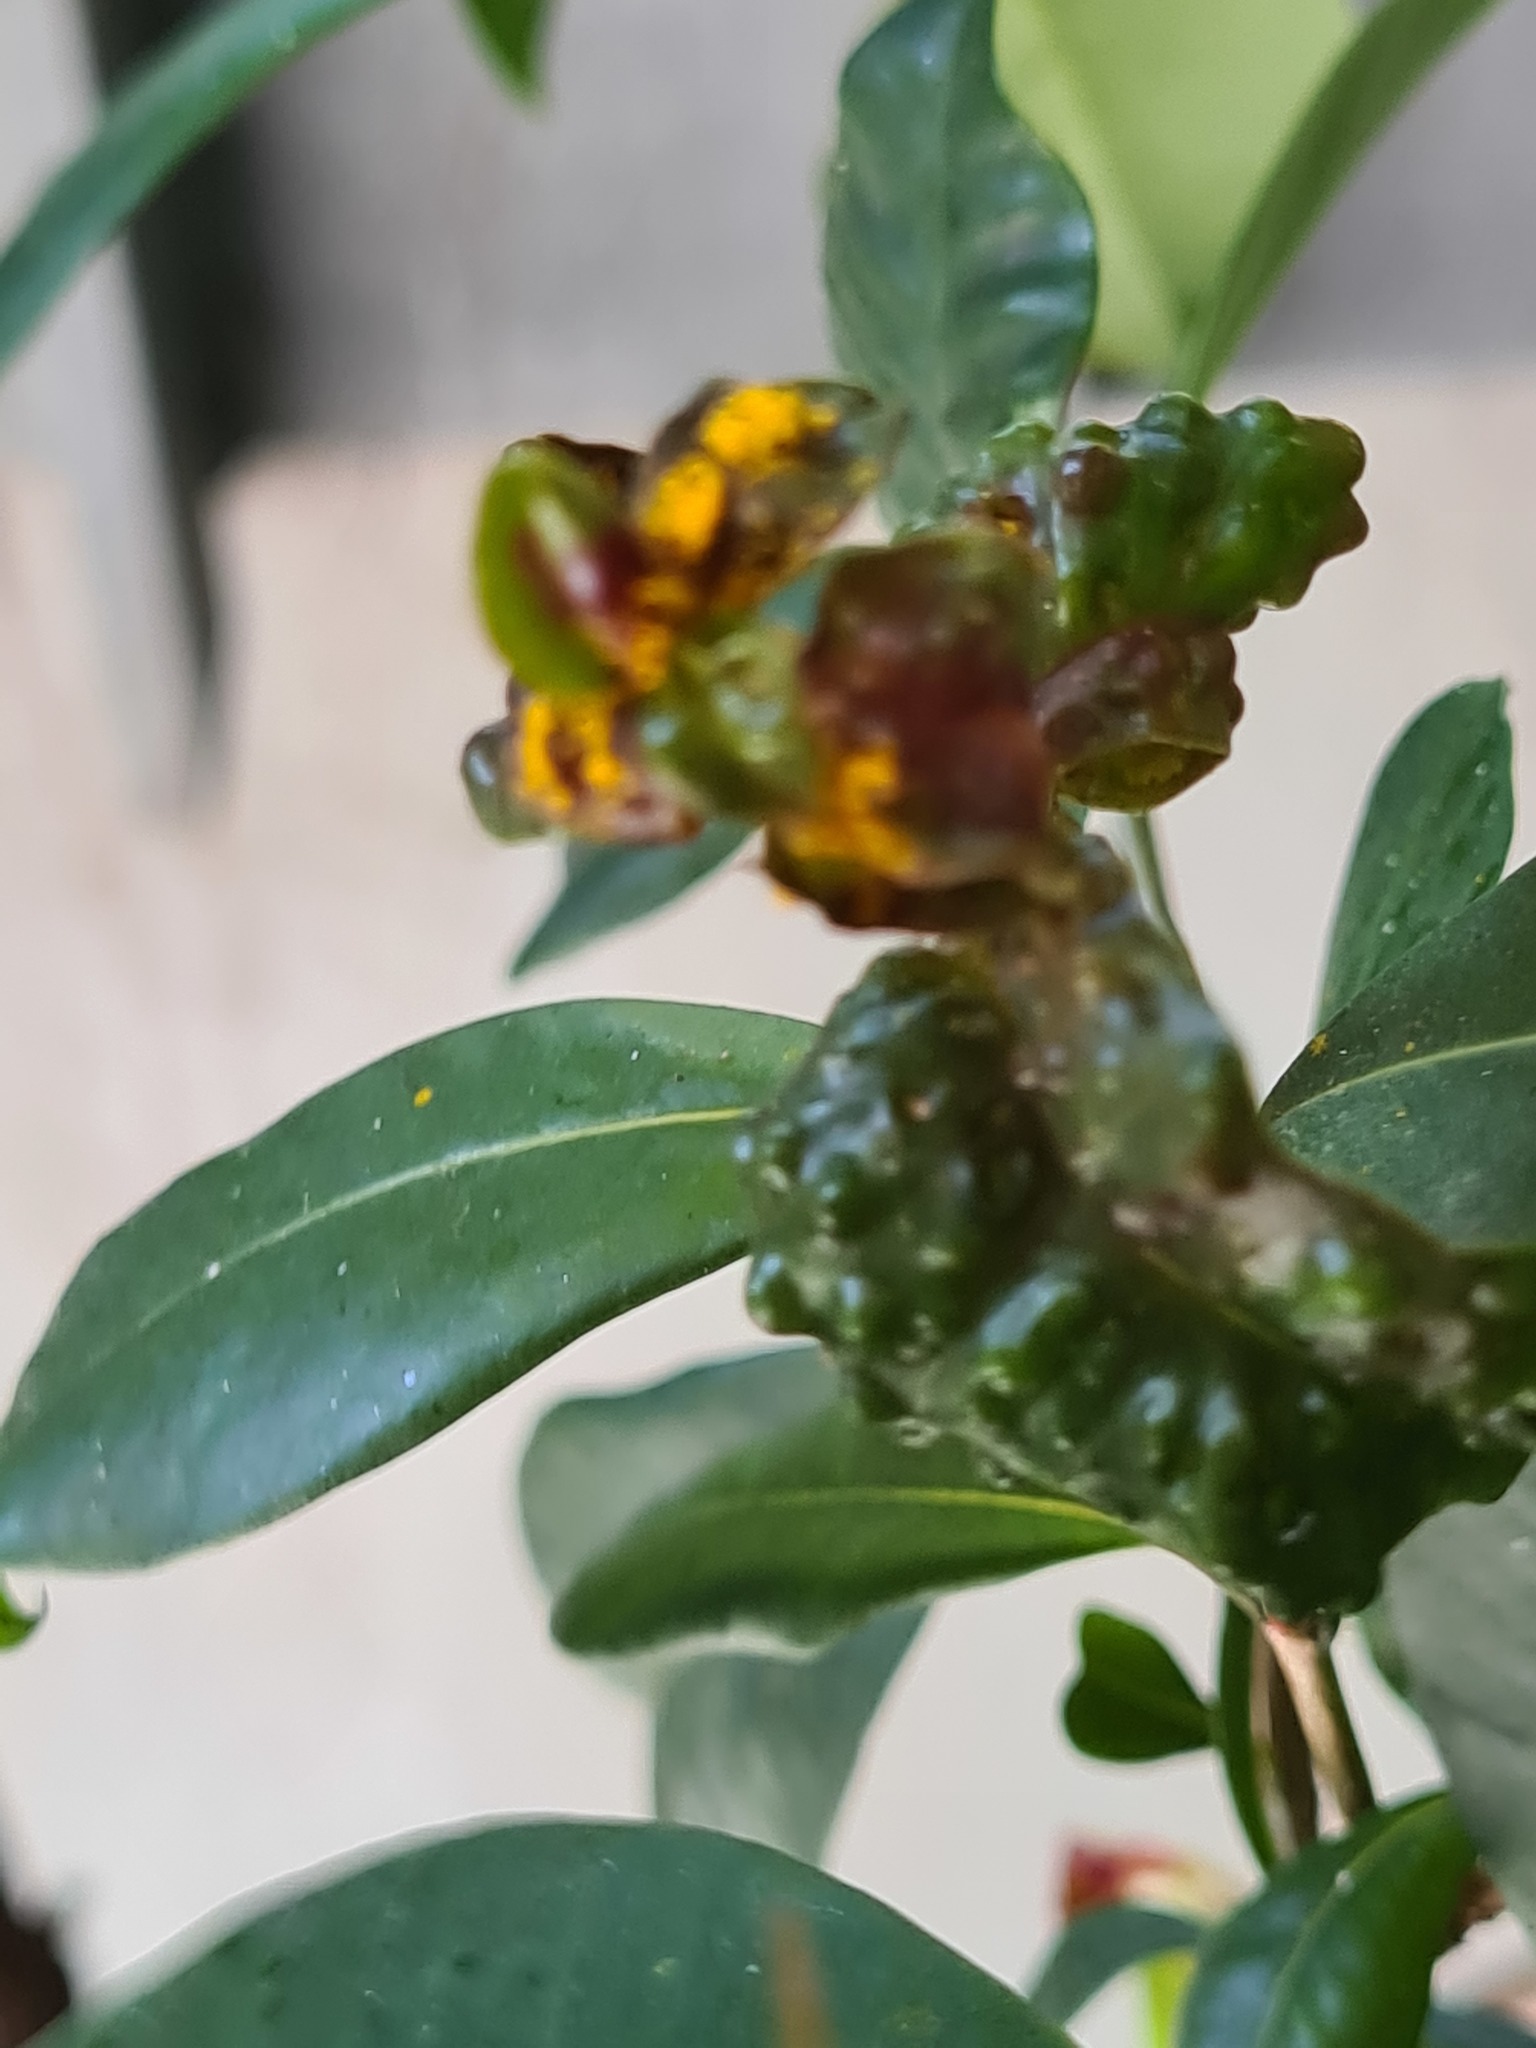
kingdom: Fungi
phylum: Basidiomycota
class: Pucciniomycetes
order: Pucciniales
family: Sphaerophragmiaceae
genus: Austropuccinia
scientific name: Austropuccinia psidii
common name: Myrtle rust
